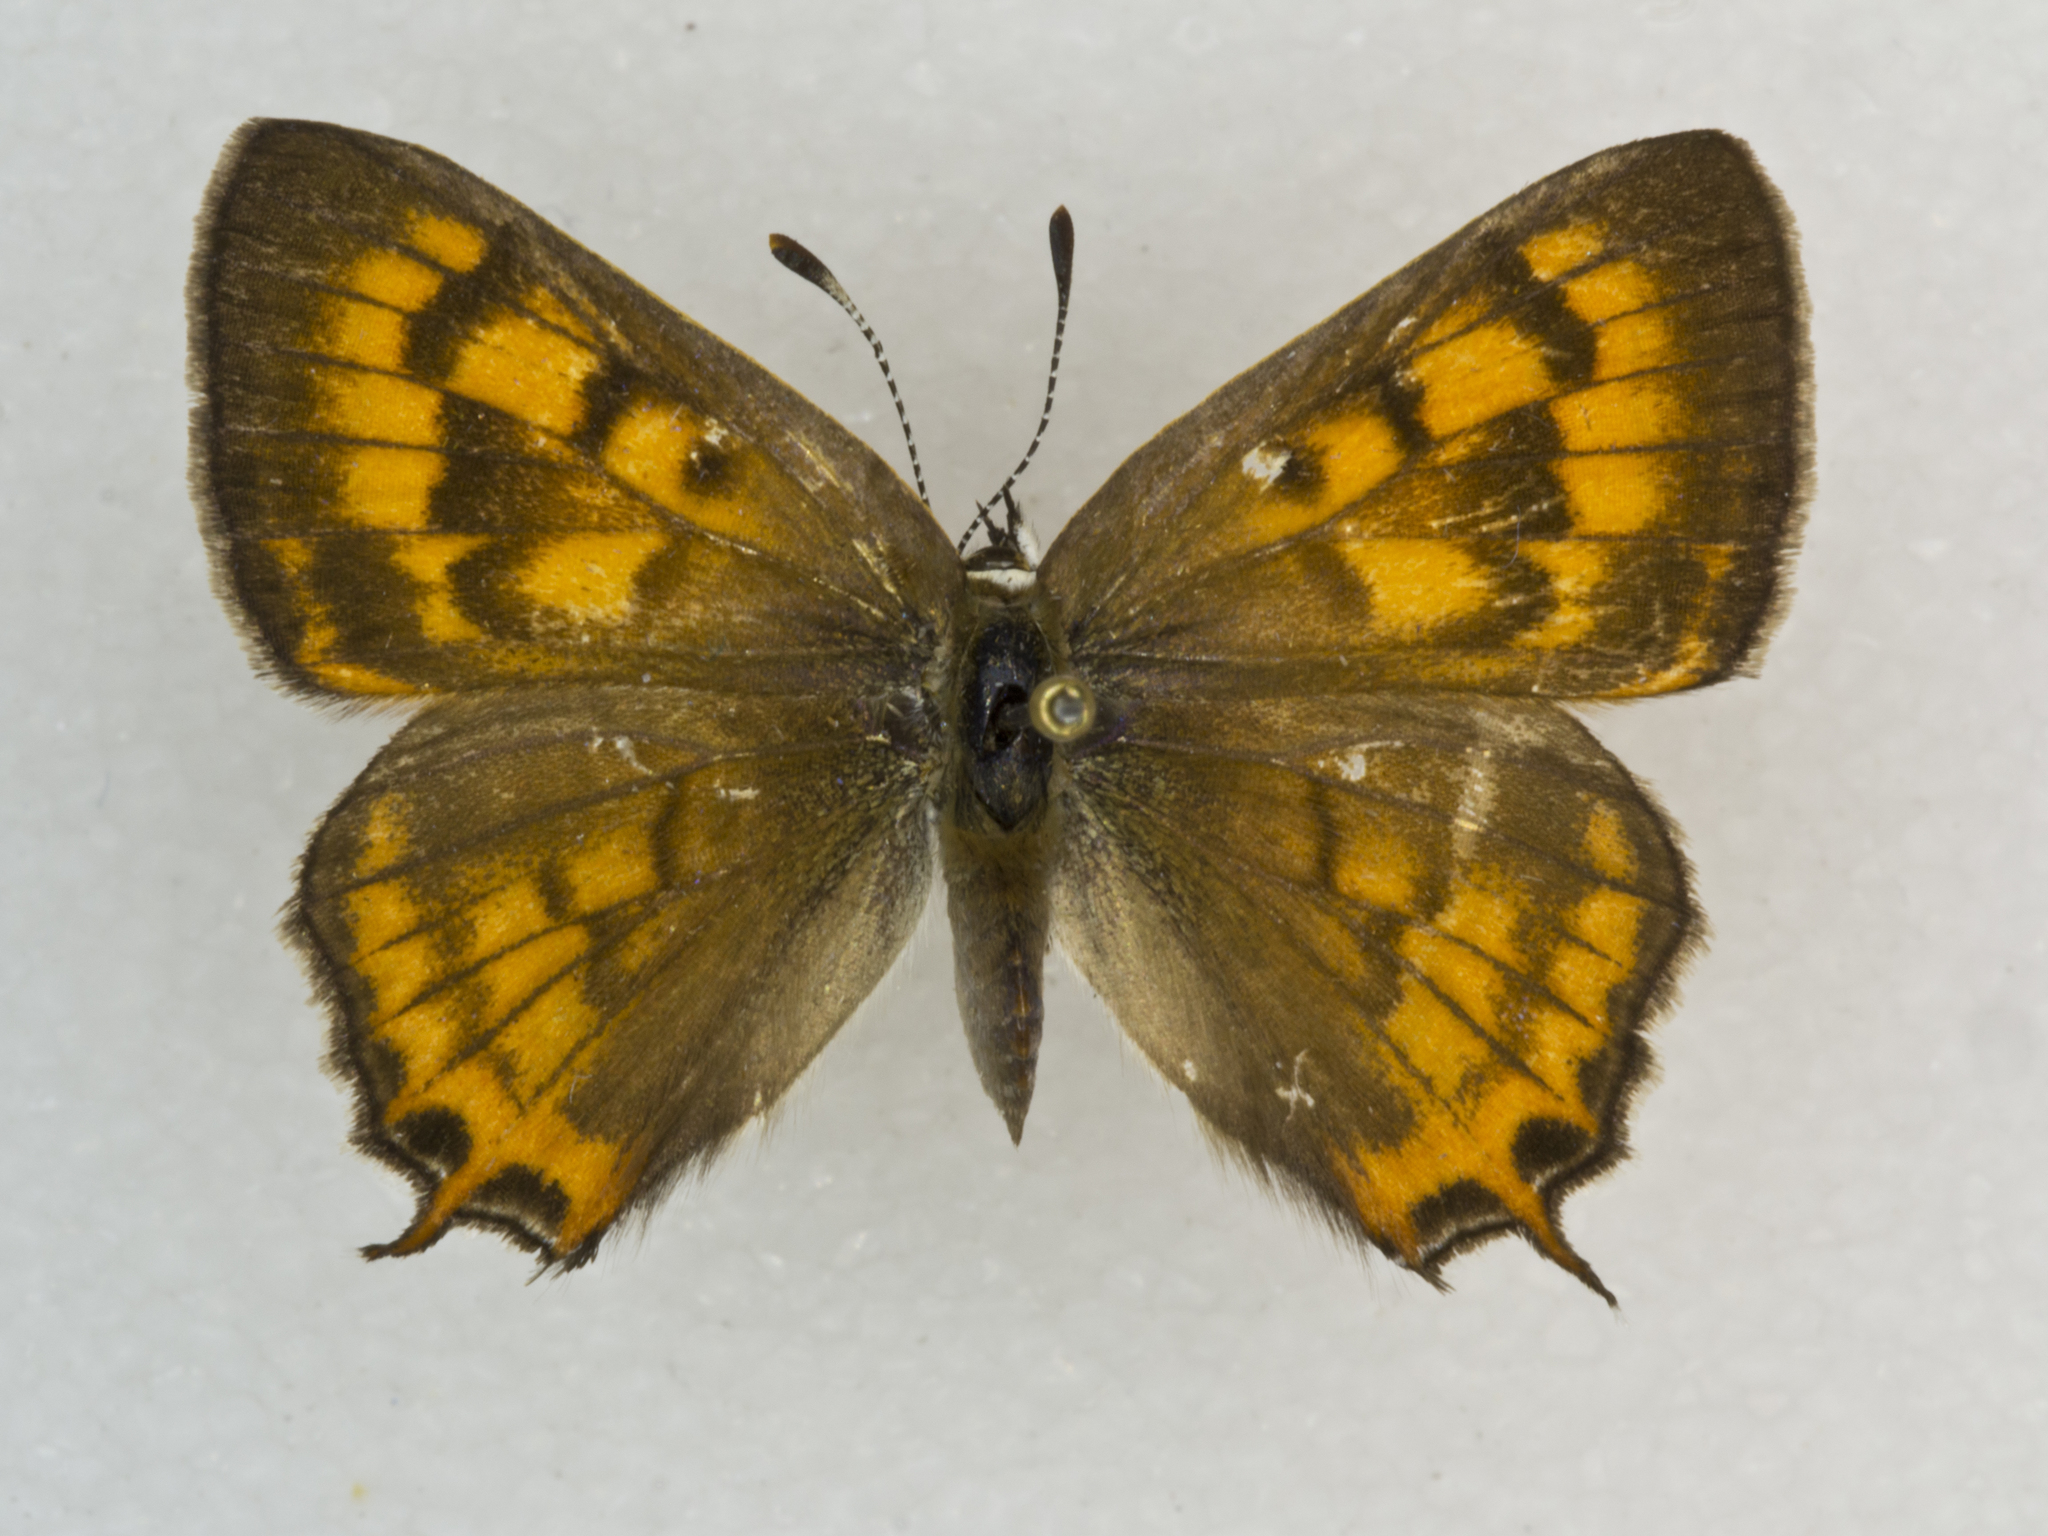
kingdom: Animalia
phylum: Arthropoda
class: Insecta
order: Lepidoptera
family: Lycaenidae
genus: Tharsalea
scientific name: Tharsalea arota
